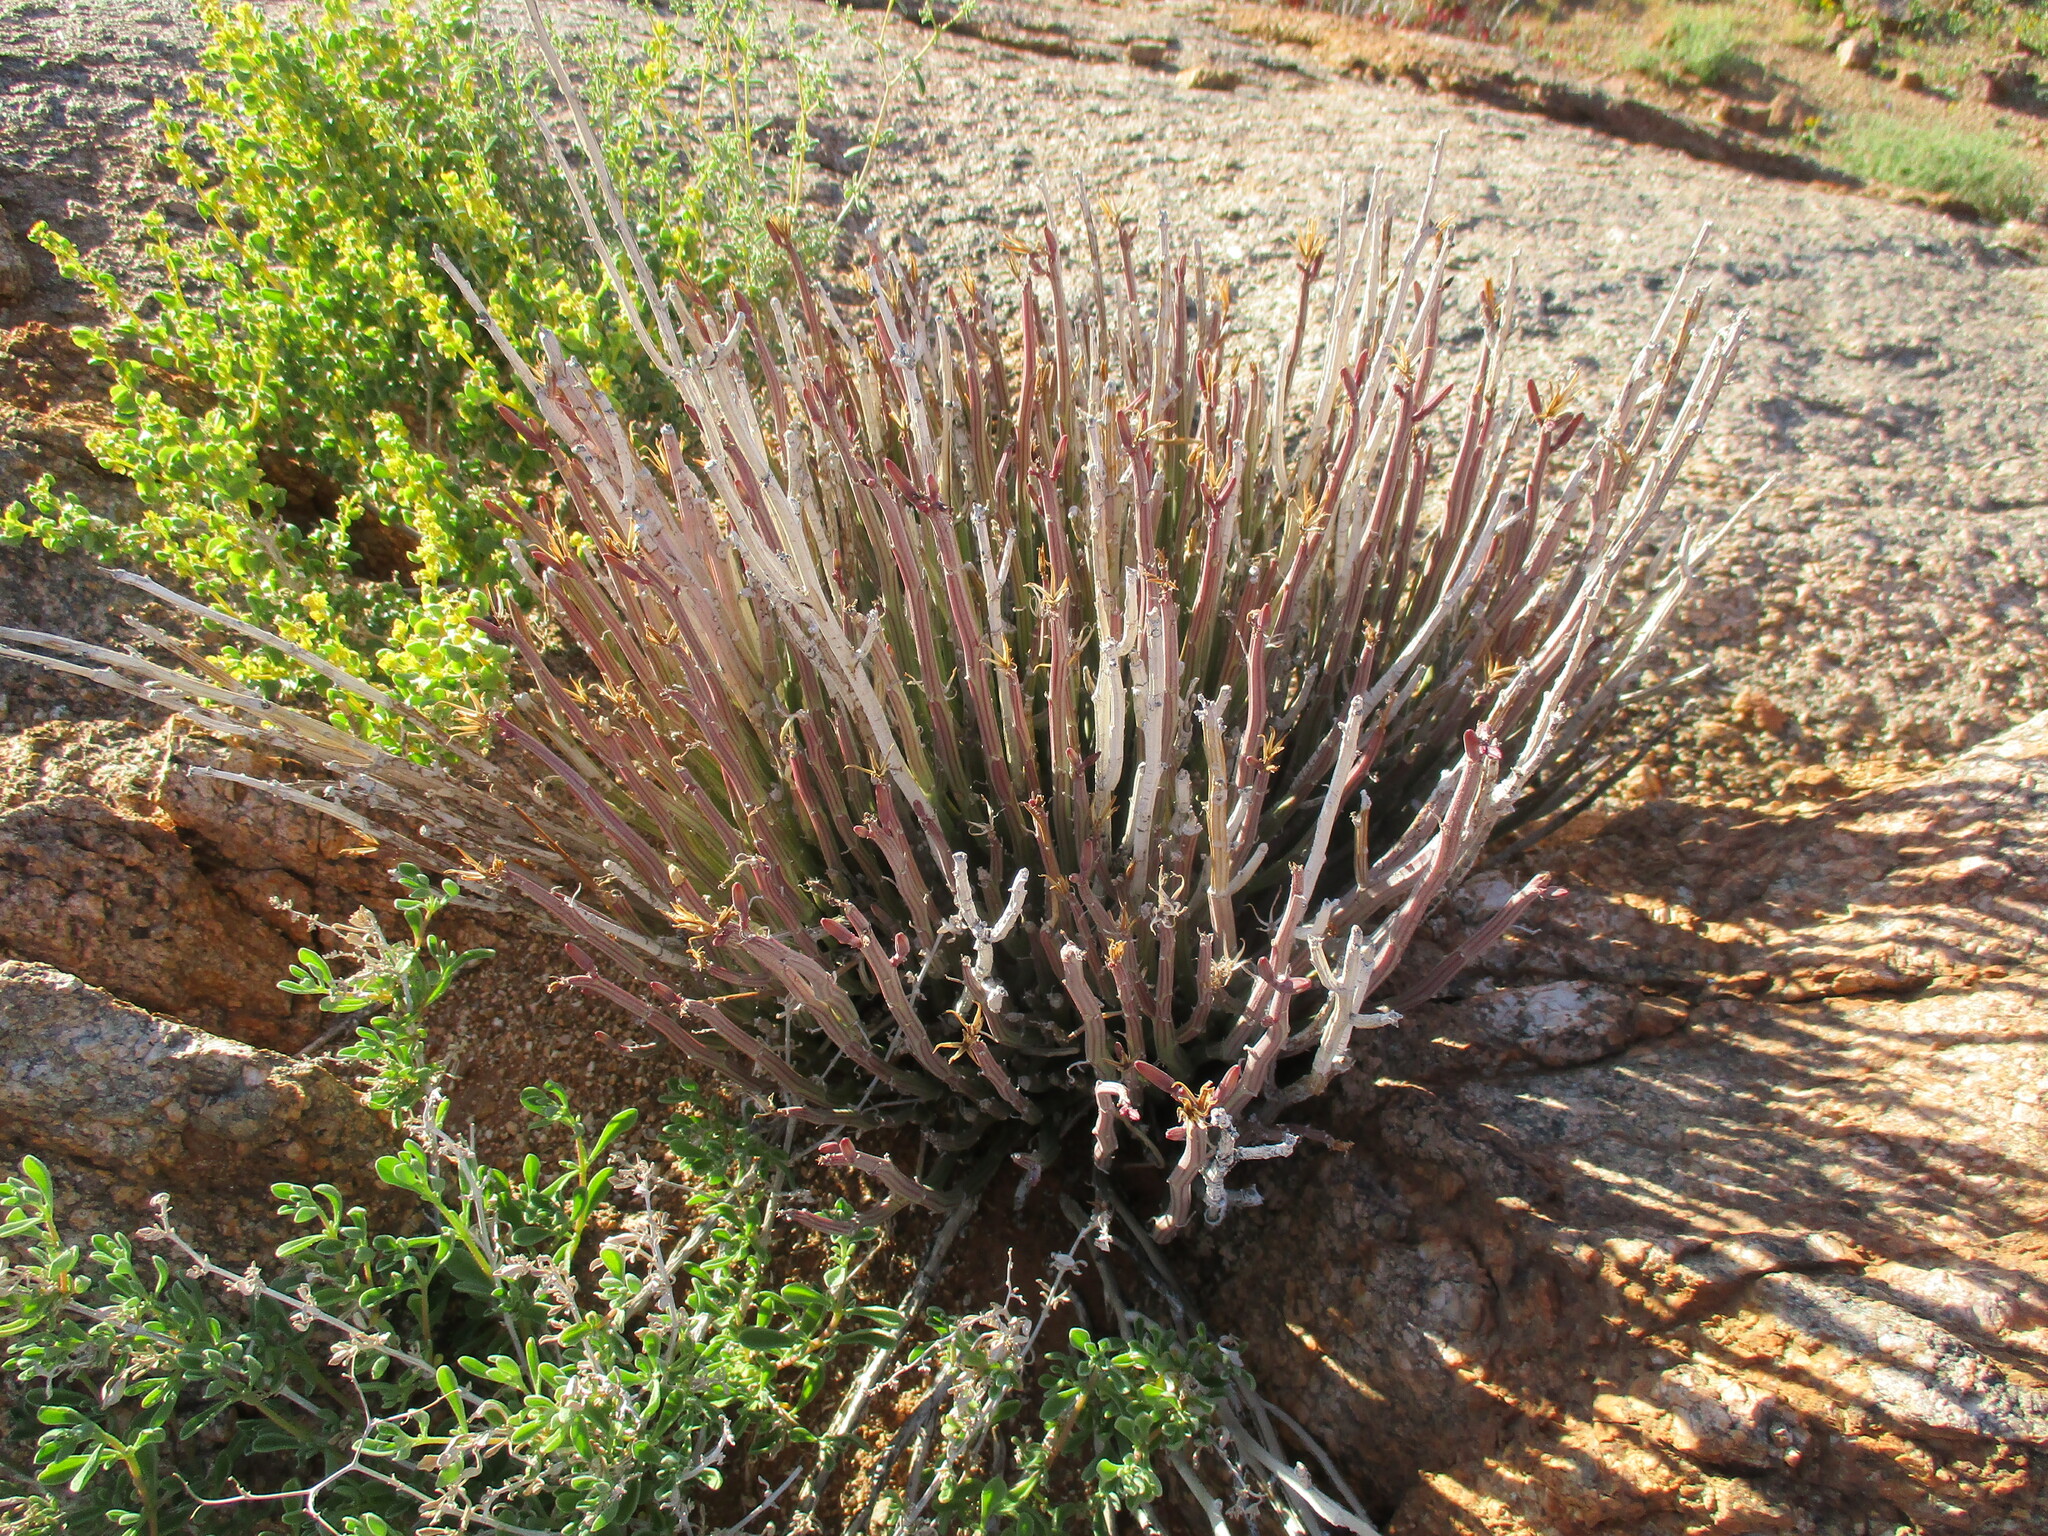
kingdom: Plantae
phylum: Tracheophyta
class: Magnoliopsida
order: Asterales
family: Asteraceae
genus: Curio
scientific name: Curio avasimontanus
